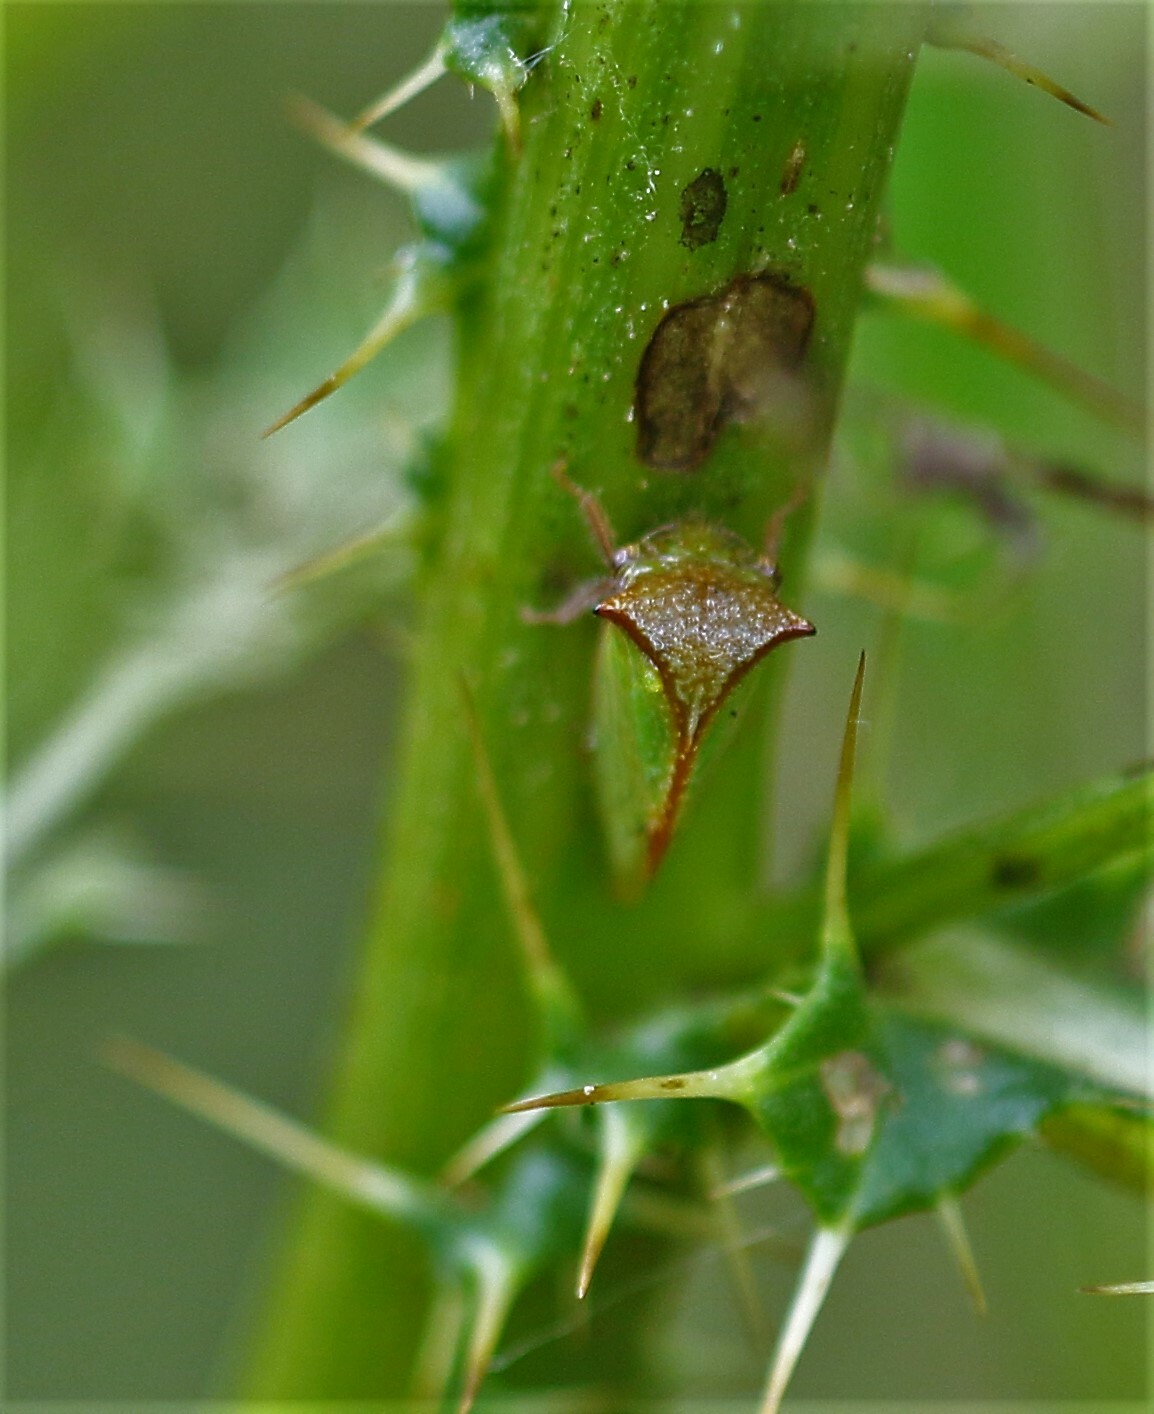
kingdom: Animalia
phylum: Arthropoda
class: Insecta
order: Hemiptera
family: Membracidae
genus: Stictocephala
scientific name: Stictocephala basalis
